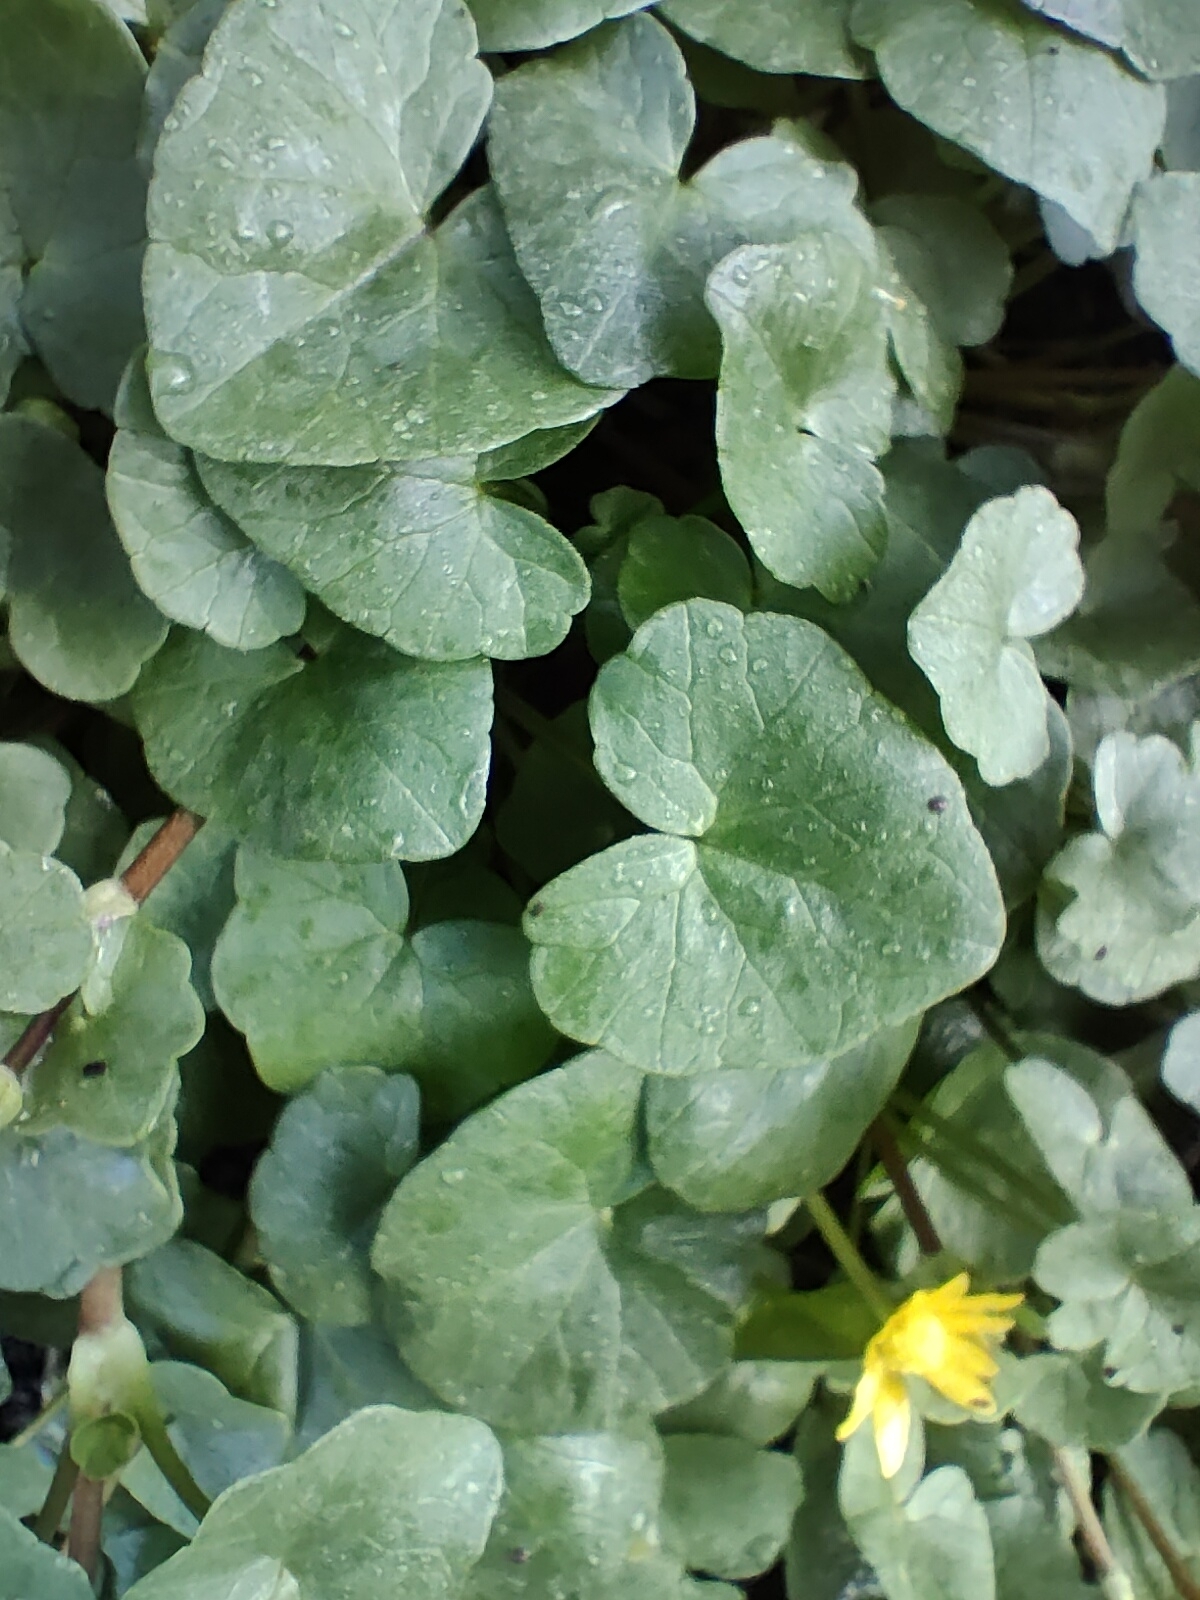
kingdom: Plantae
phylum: Tracheophyta
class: Magnoliopsida
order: Ranunculales
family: Ranunculaceae
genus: Ficaria
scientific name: Ficaria verna
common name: Lesser celandine
